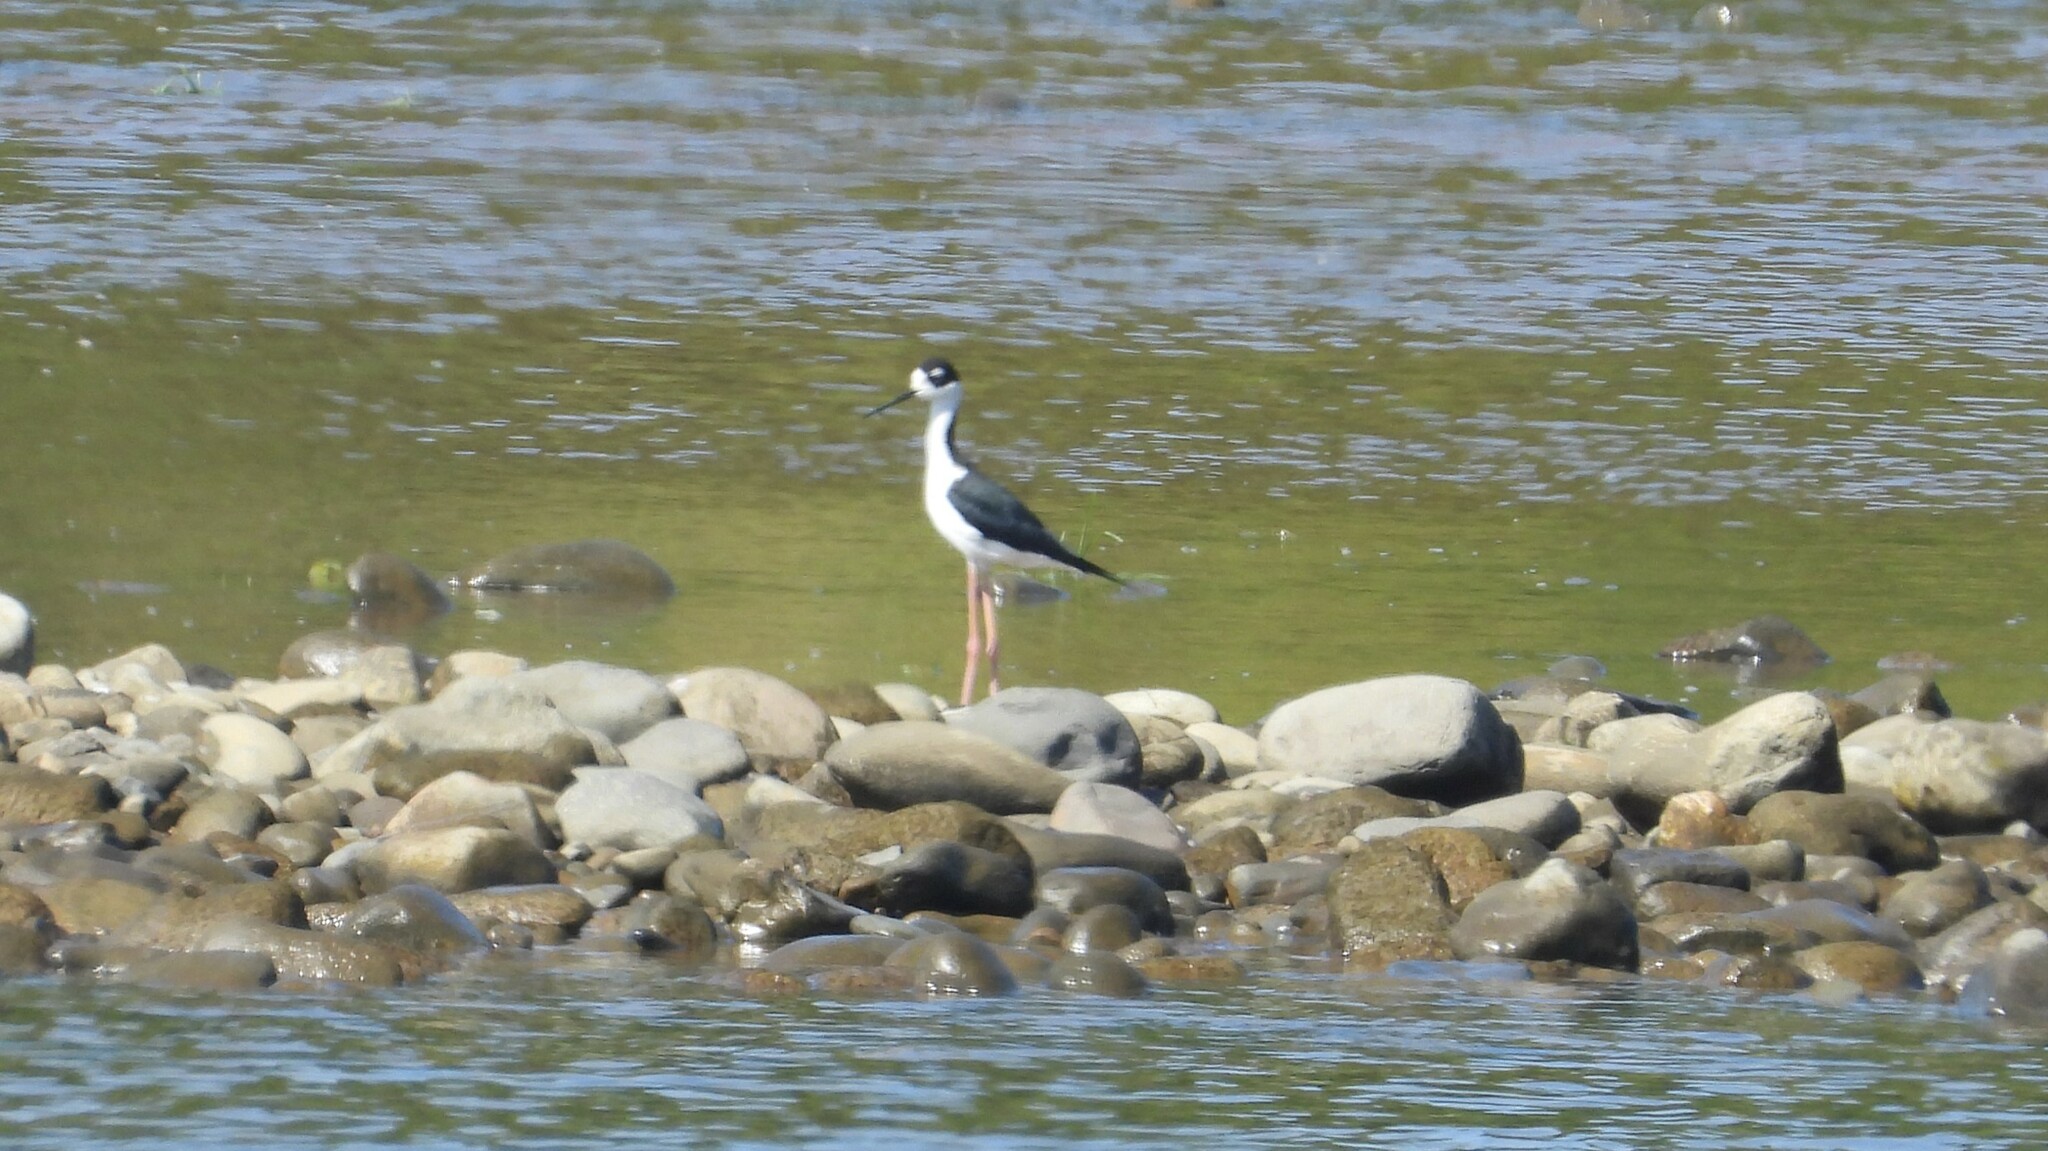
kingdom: Animalia
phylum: Chordata
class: Aves
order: Charadriiformes
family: Recurvirostridae
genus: Himantopus
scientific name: Himantopus mexicanus
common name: Black-necked stilt
